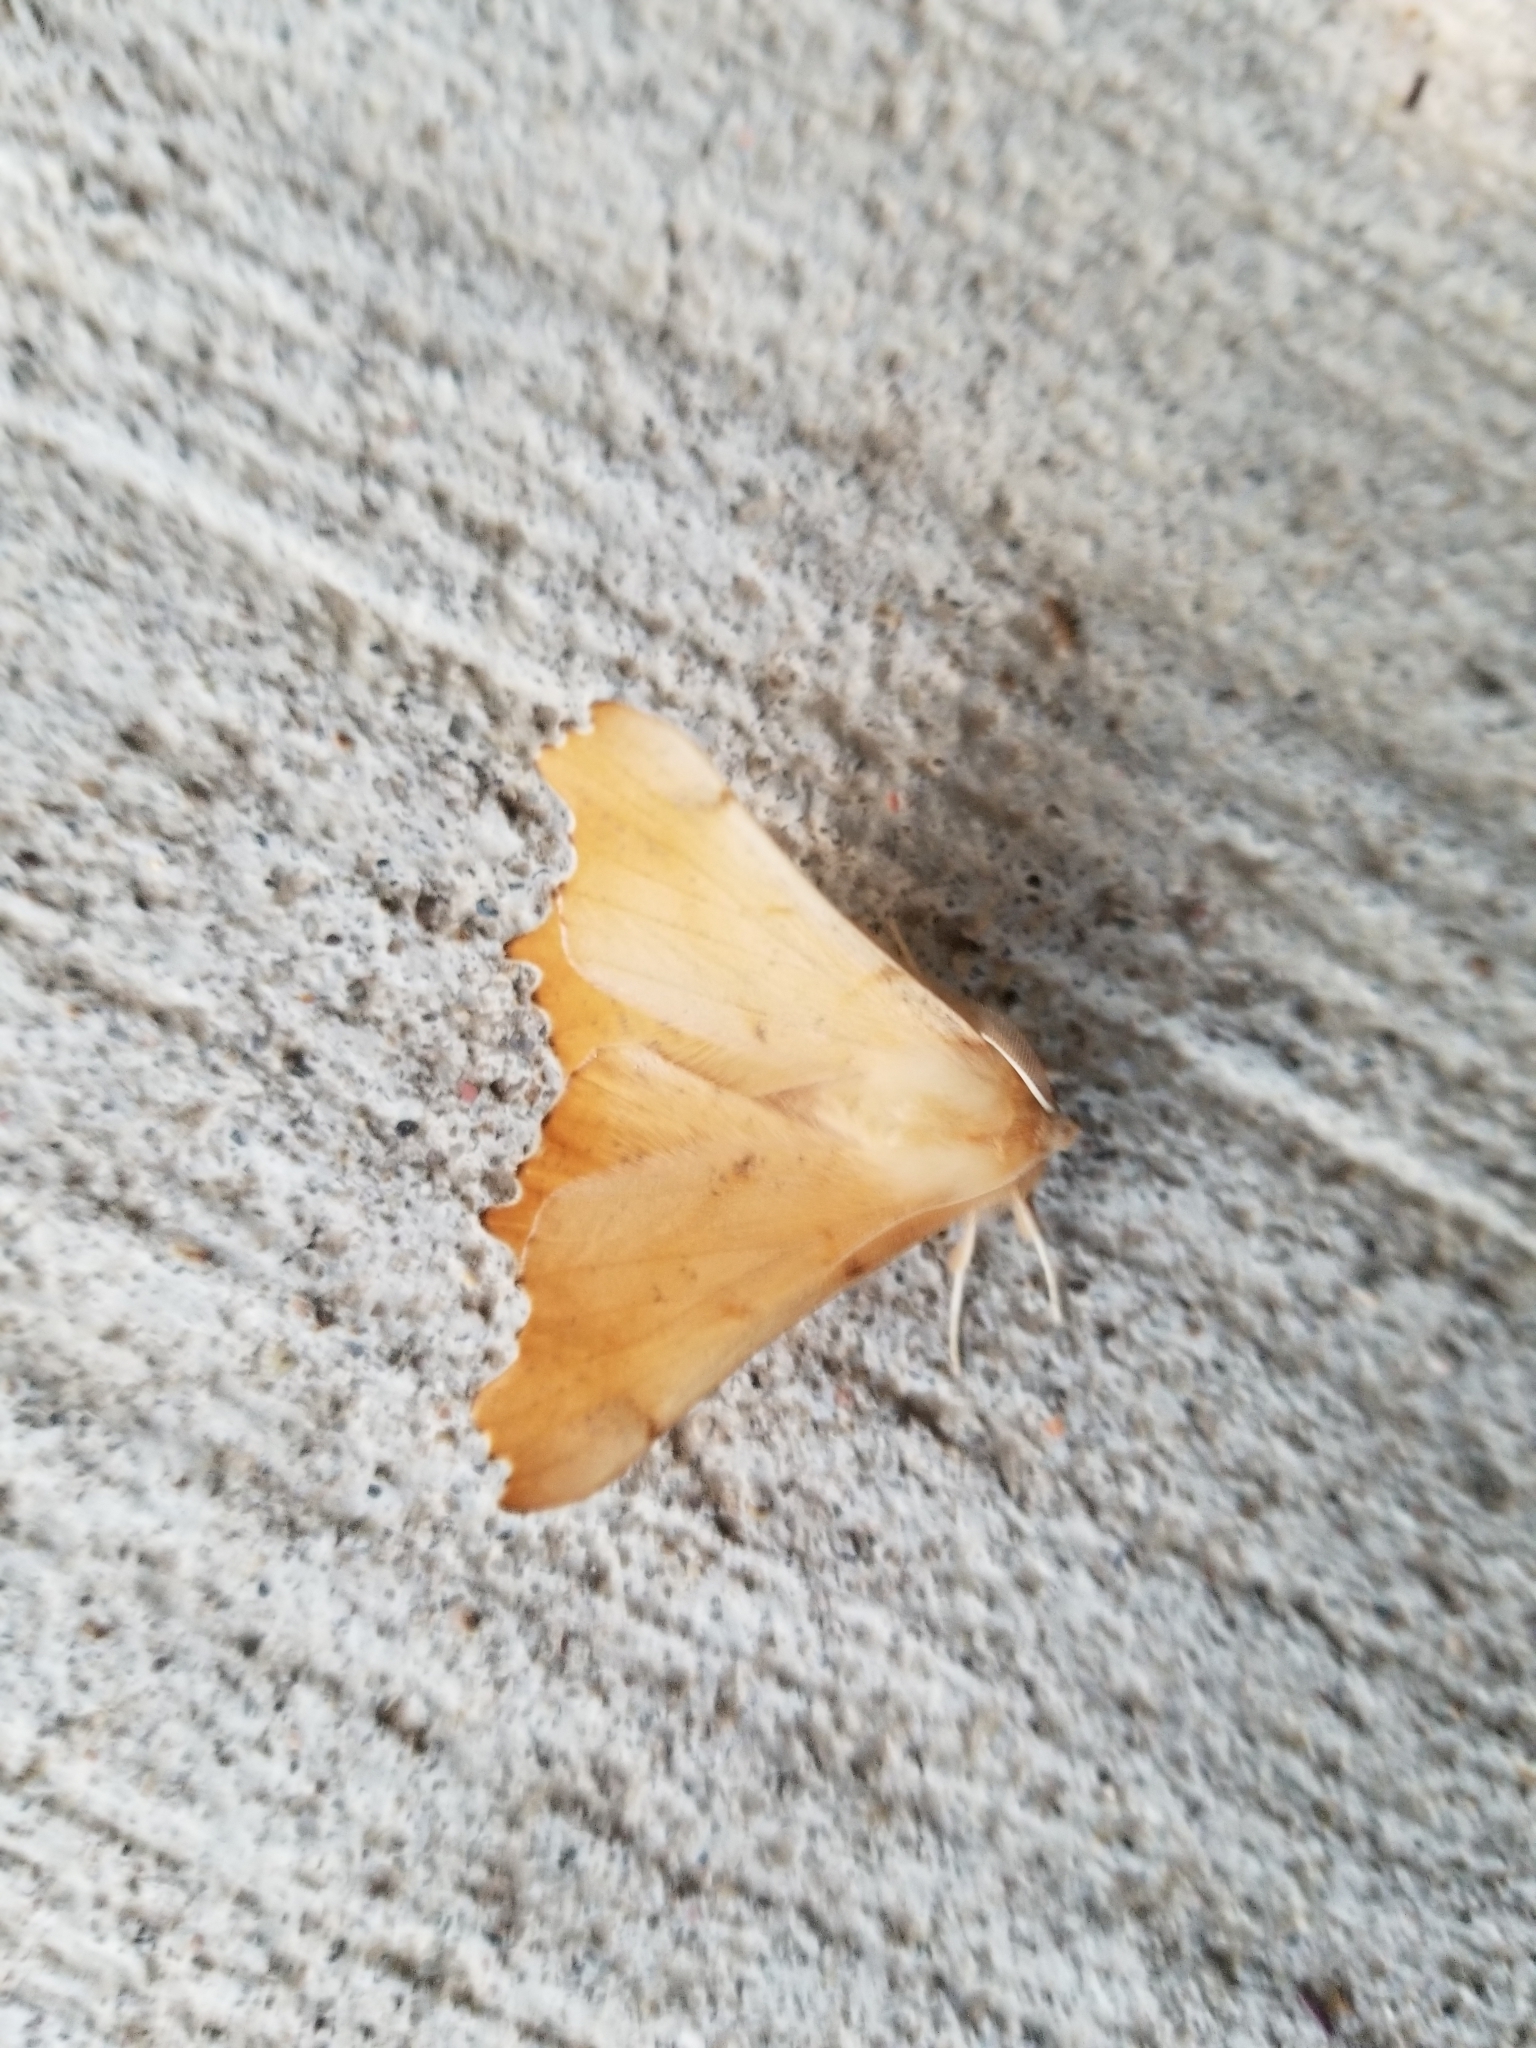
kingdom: Animalia
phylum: Arthropoda
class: Insecta
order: Lepidoptera
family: Geometridae
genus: Ennomos
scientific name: Ennomos magnaria
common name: Maple spanworm
